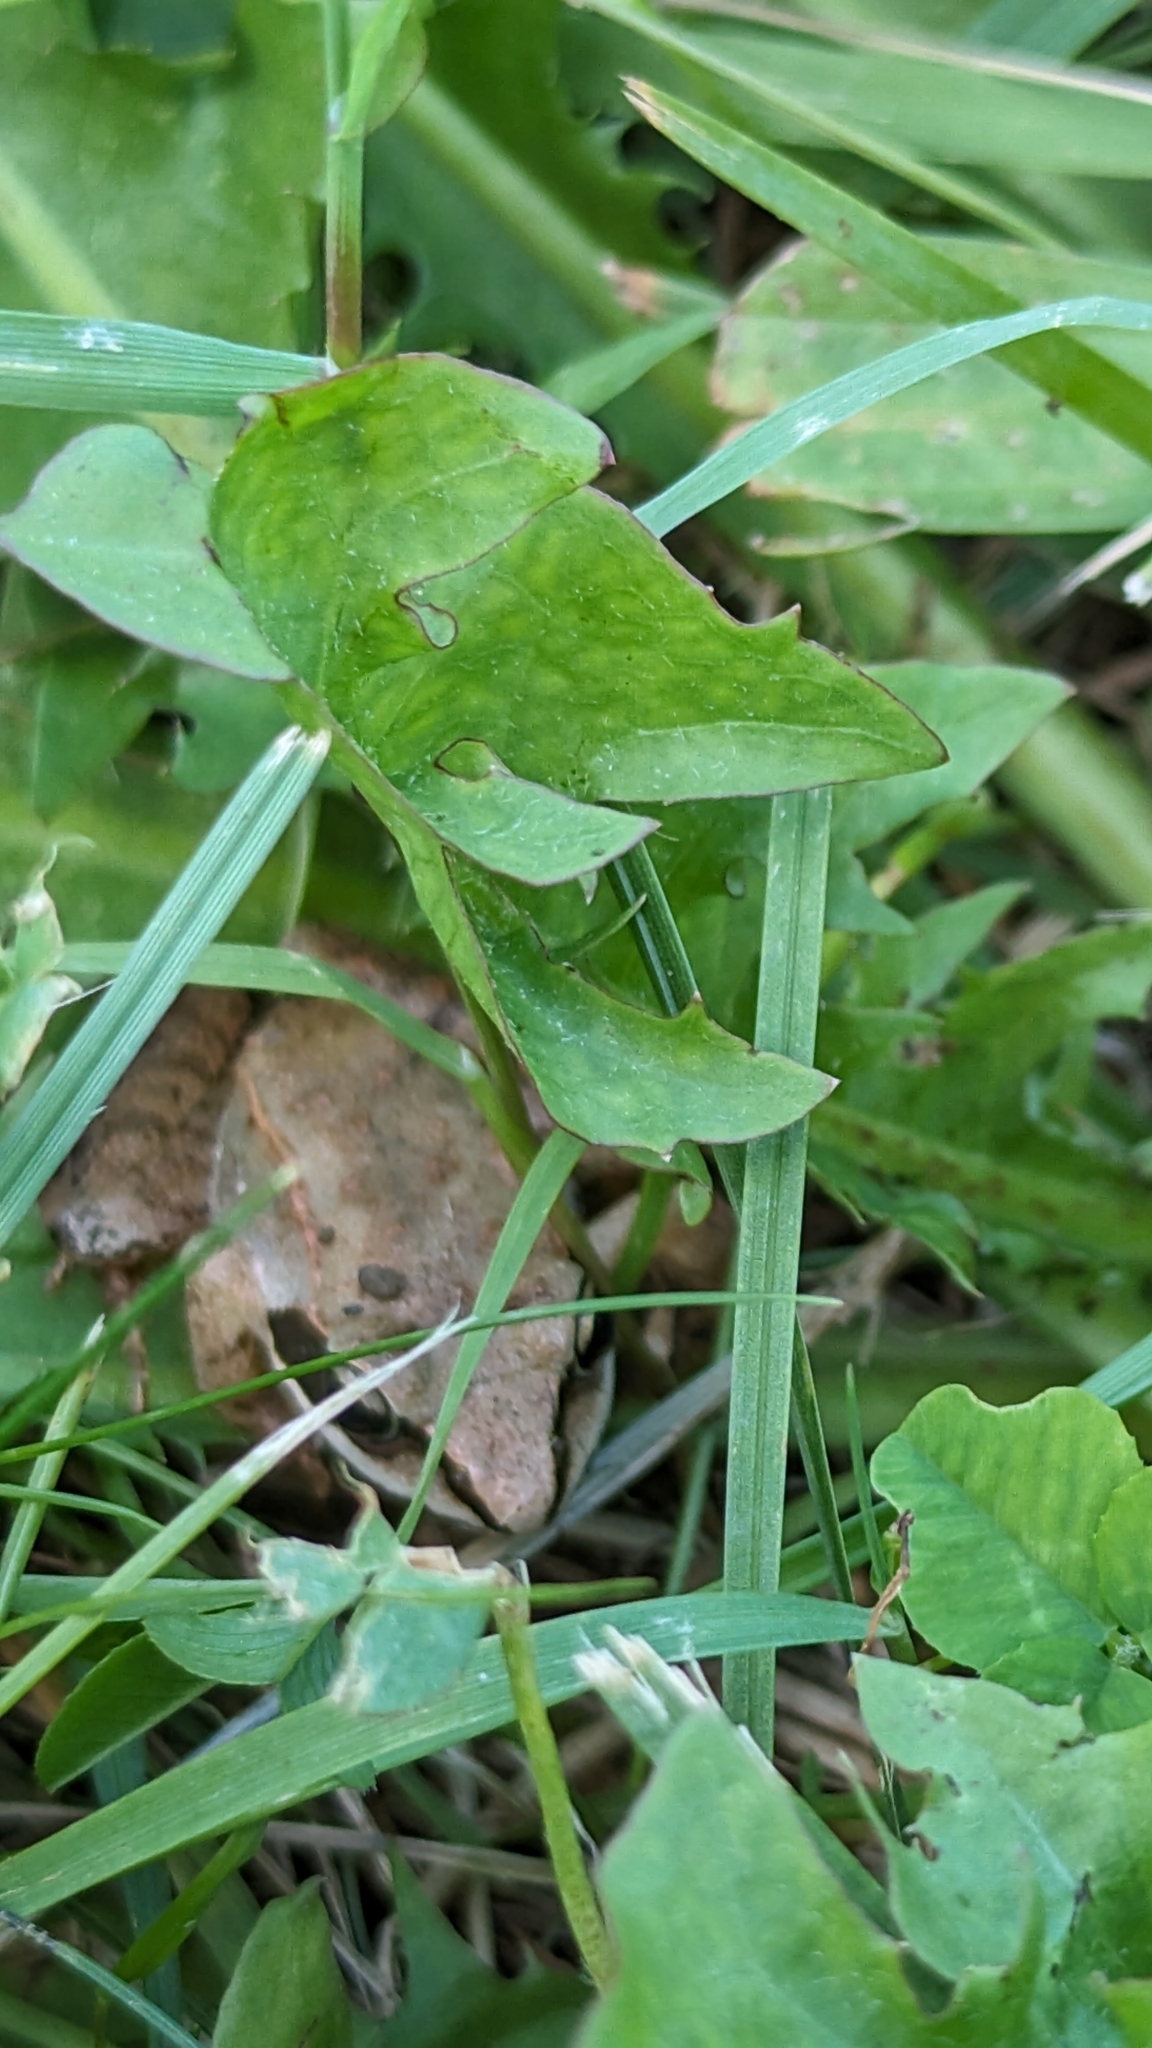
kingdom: Animalia
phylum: Chordata
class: Amphibia
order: Anura
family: Ranidae
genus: Lithobates
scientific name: Lithobates sylvaticus
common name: Wood frog
